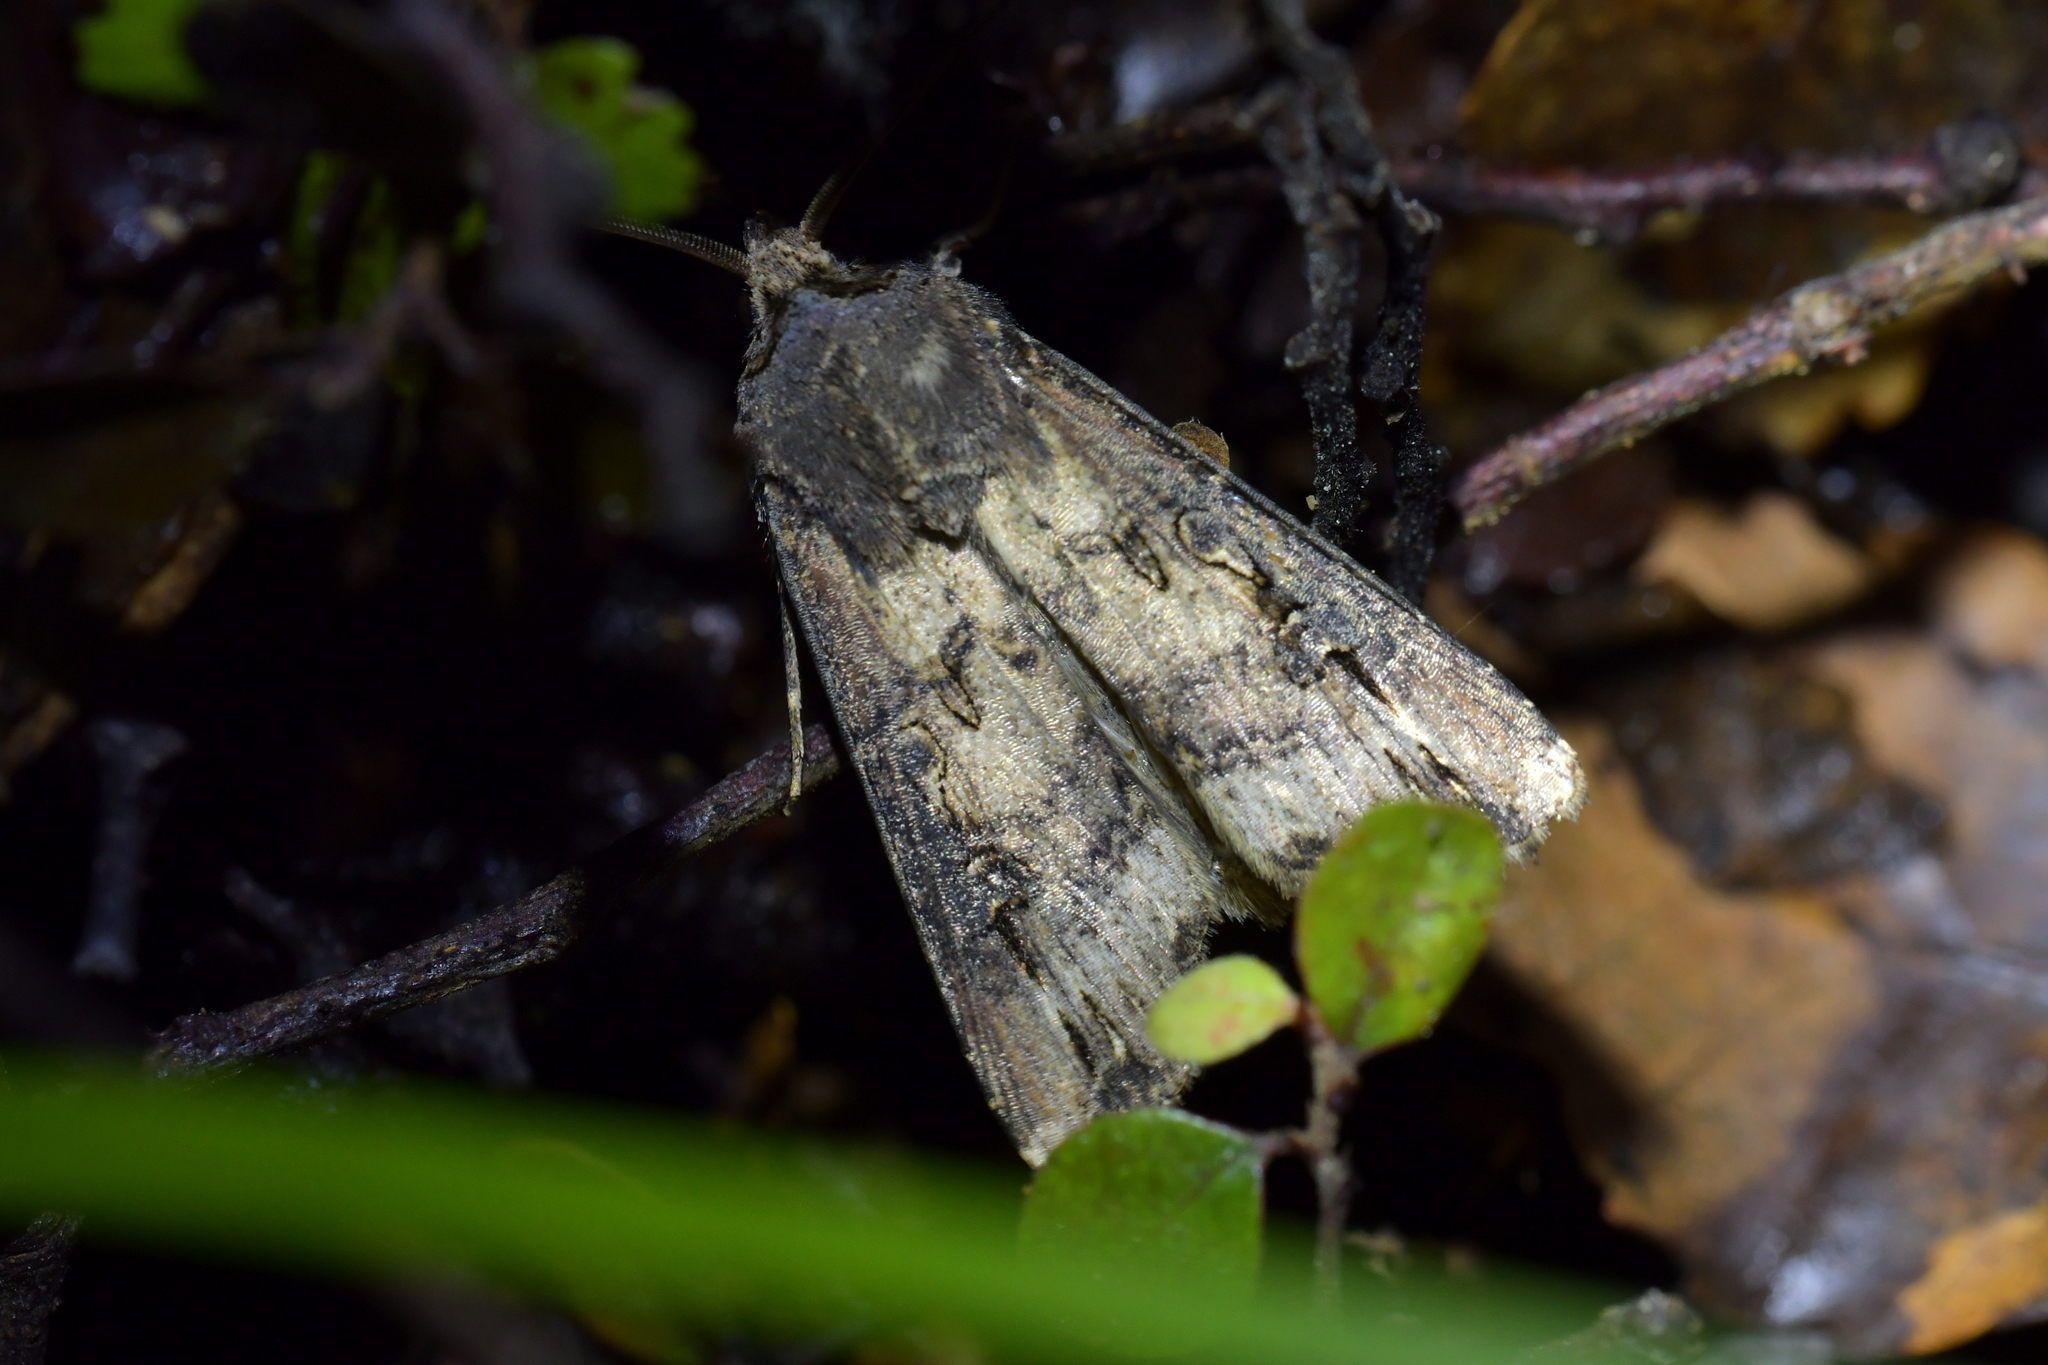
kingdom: Animalia
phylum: Arthropoda
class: Insecta
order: Lepidoptera
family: Noctuidae
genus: Agrotis
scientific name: Agrotis ipsilon
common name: Dark sword-grass
